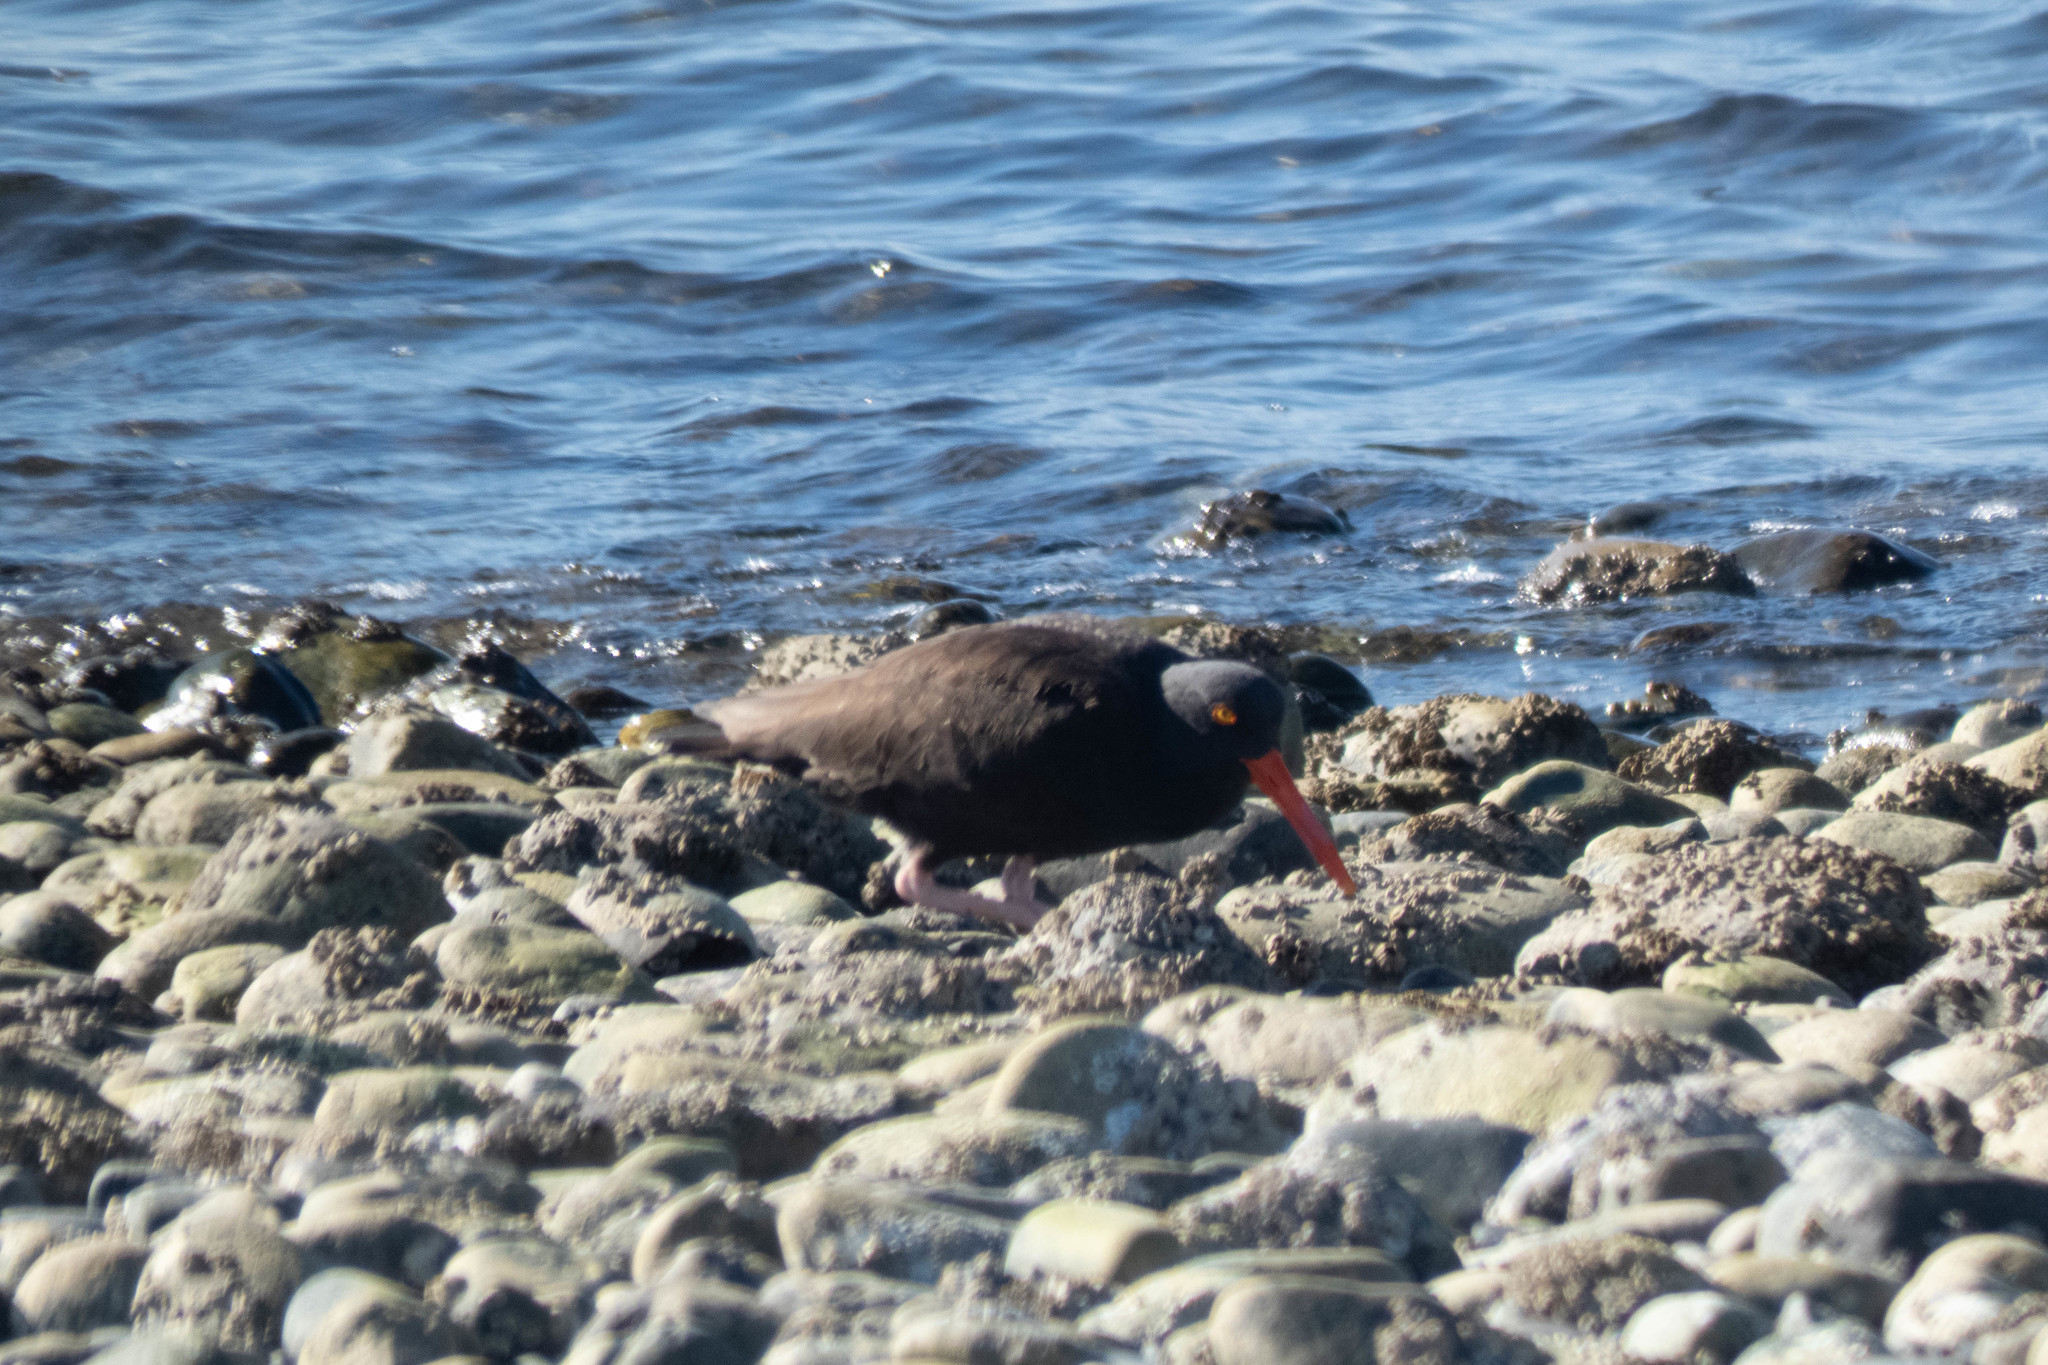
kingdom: Animalia
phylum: Chordata
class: Aves
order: Charadriiformes
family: Haematopodidae
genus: Haematopus
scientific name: Haematopus bachmani
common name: Black oystercatcher
